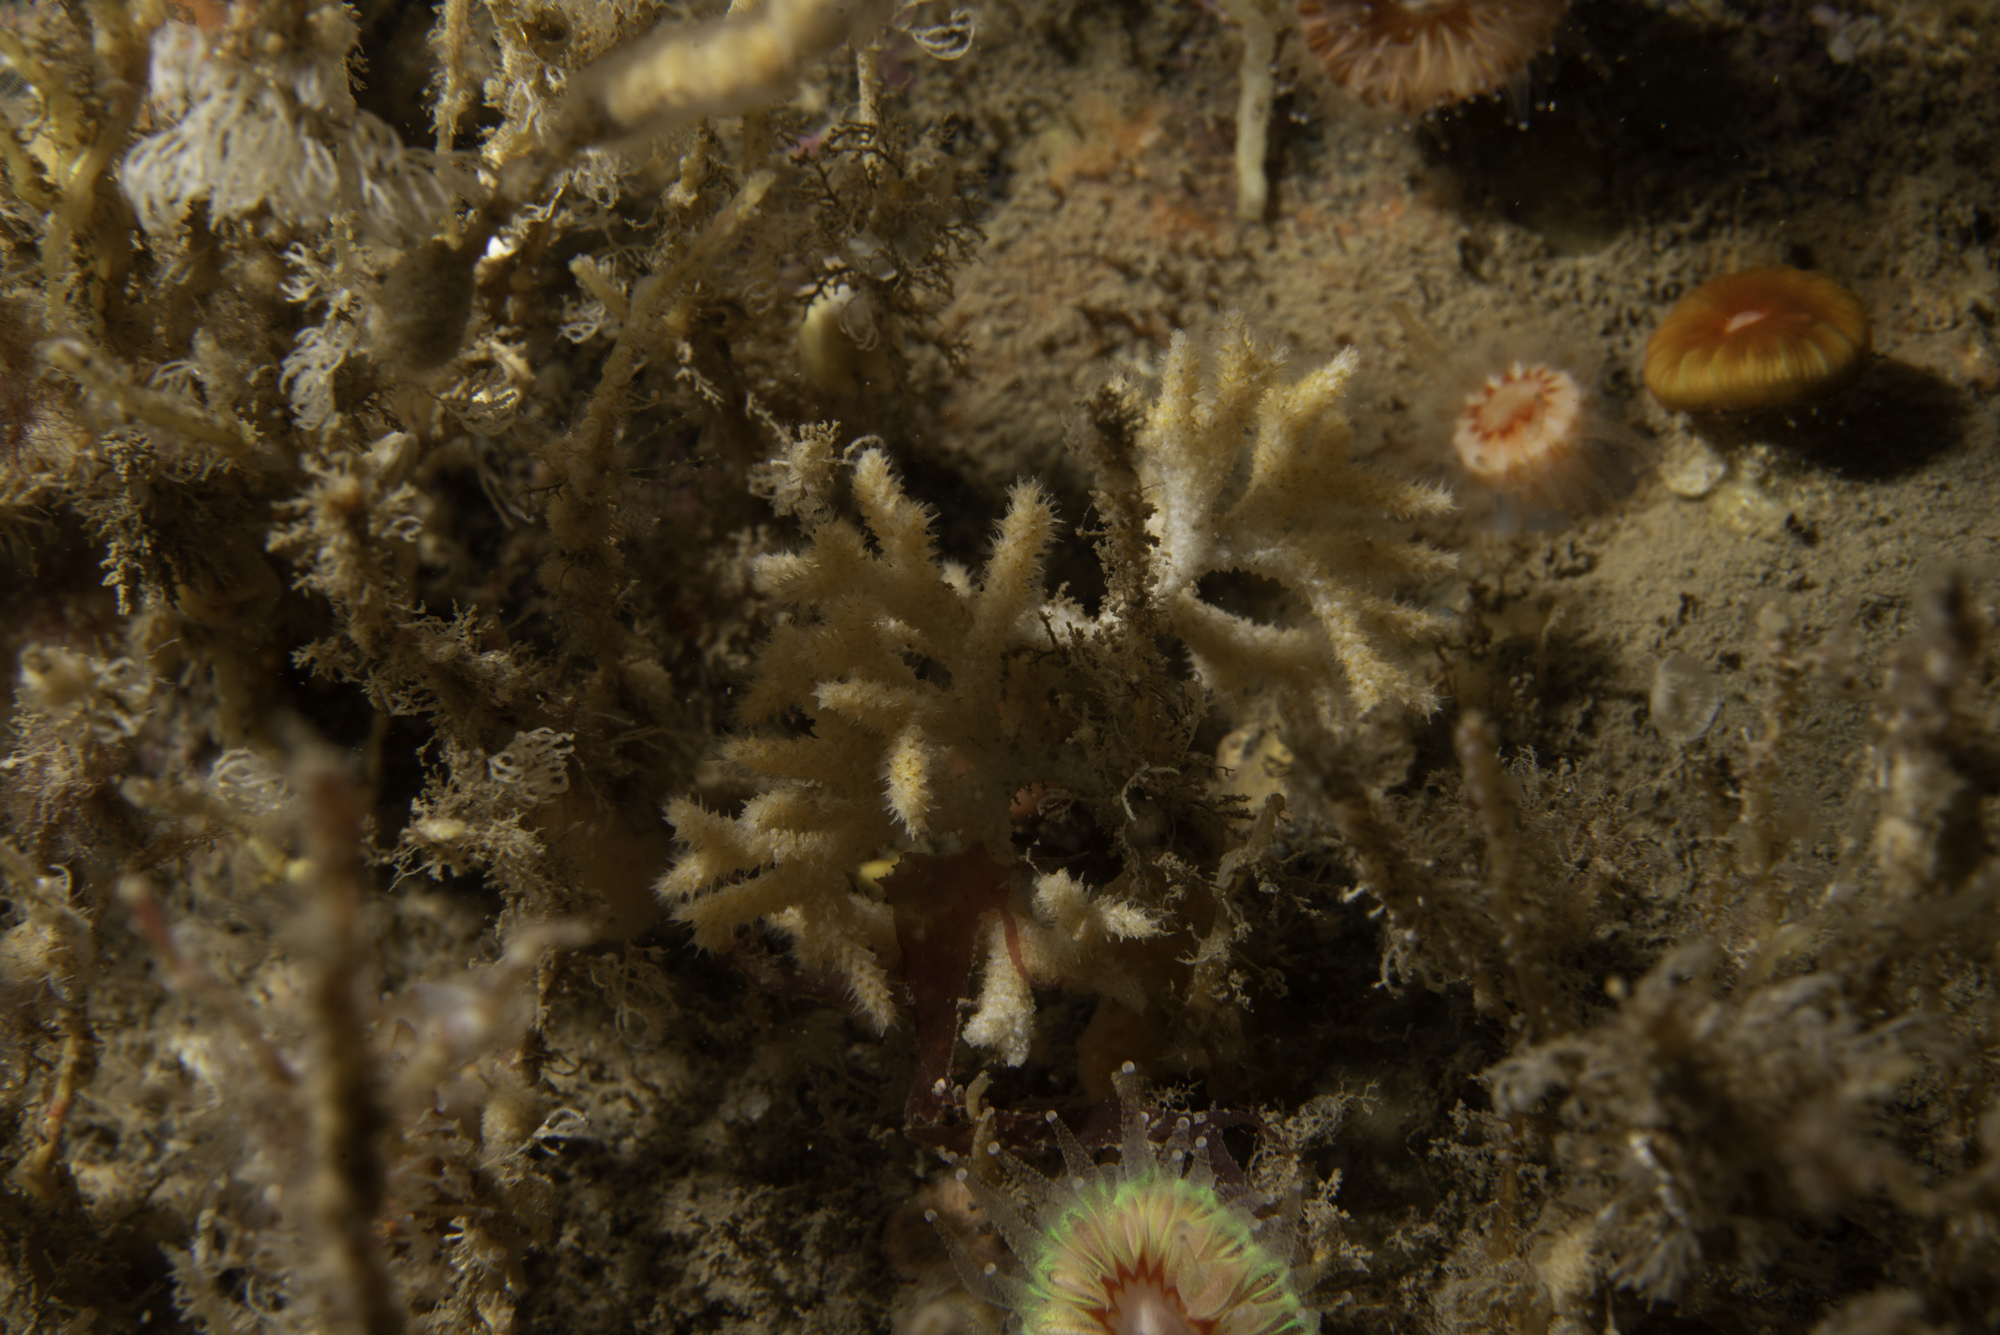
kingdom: Animalia
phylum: Bryozoa
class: Gymnolaemata
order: Cheilostomatida
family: Celleporidae
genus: Omalosecosa
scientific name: Omalosecosa ramulosa
